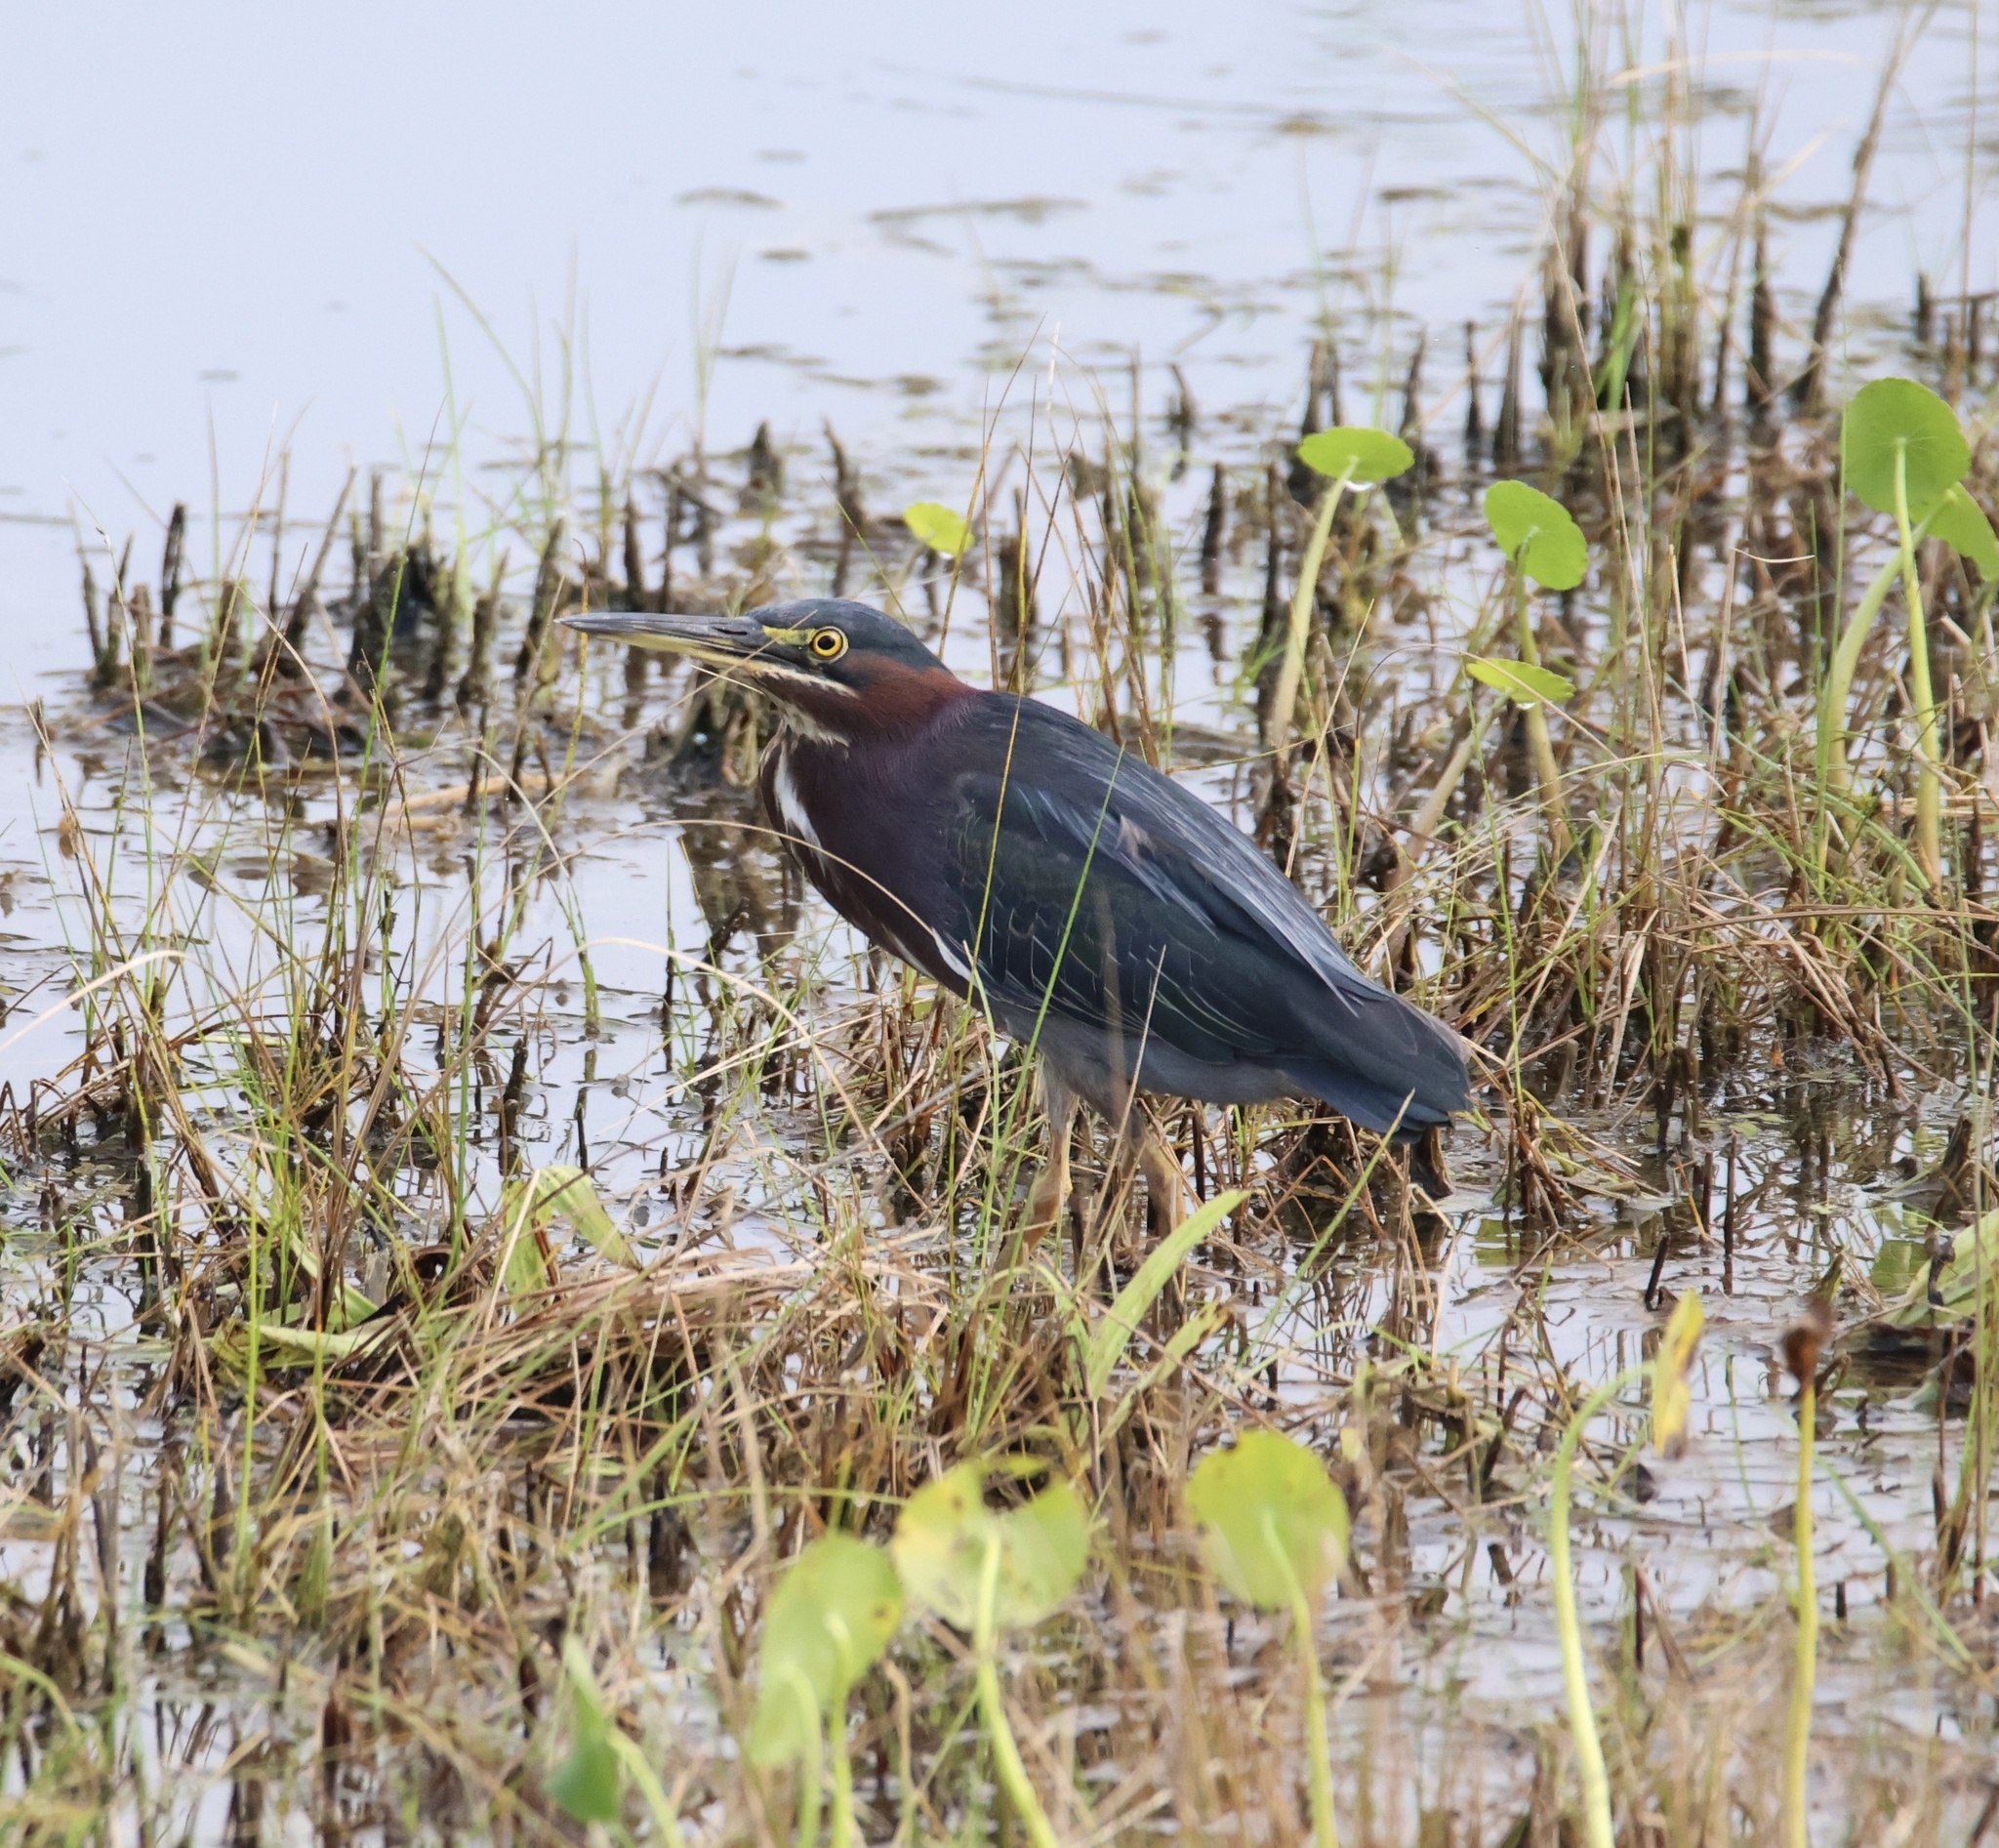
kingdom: Animalia
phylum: Chordata
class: Aves
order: Pelecaniformes
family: Ardeidae
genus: Butorides
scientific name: Butorides virescens
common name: Green heron
